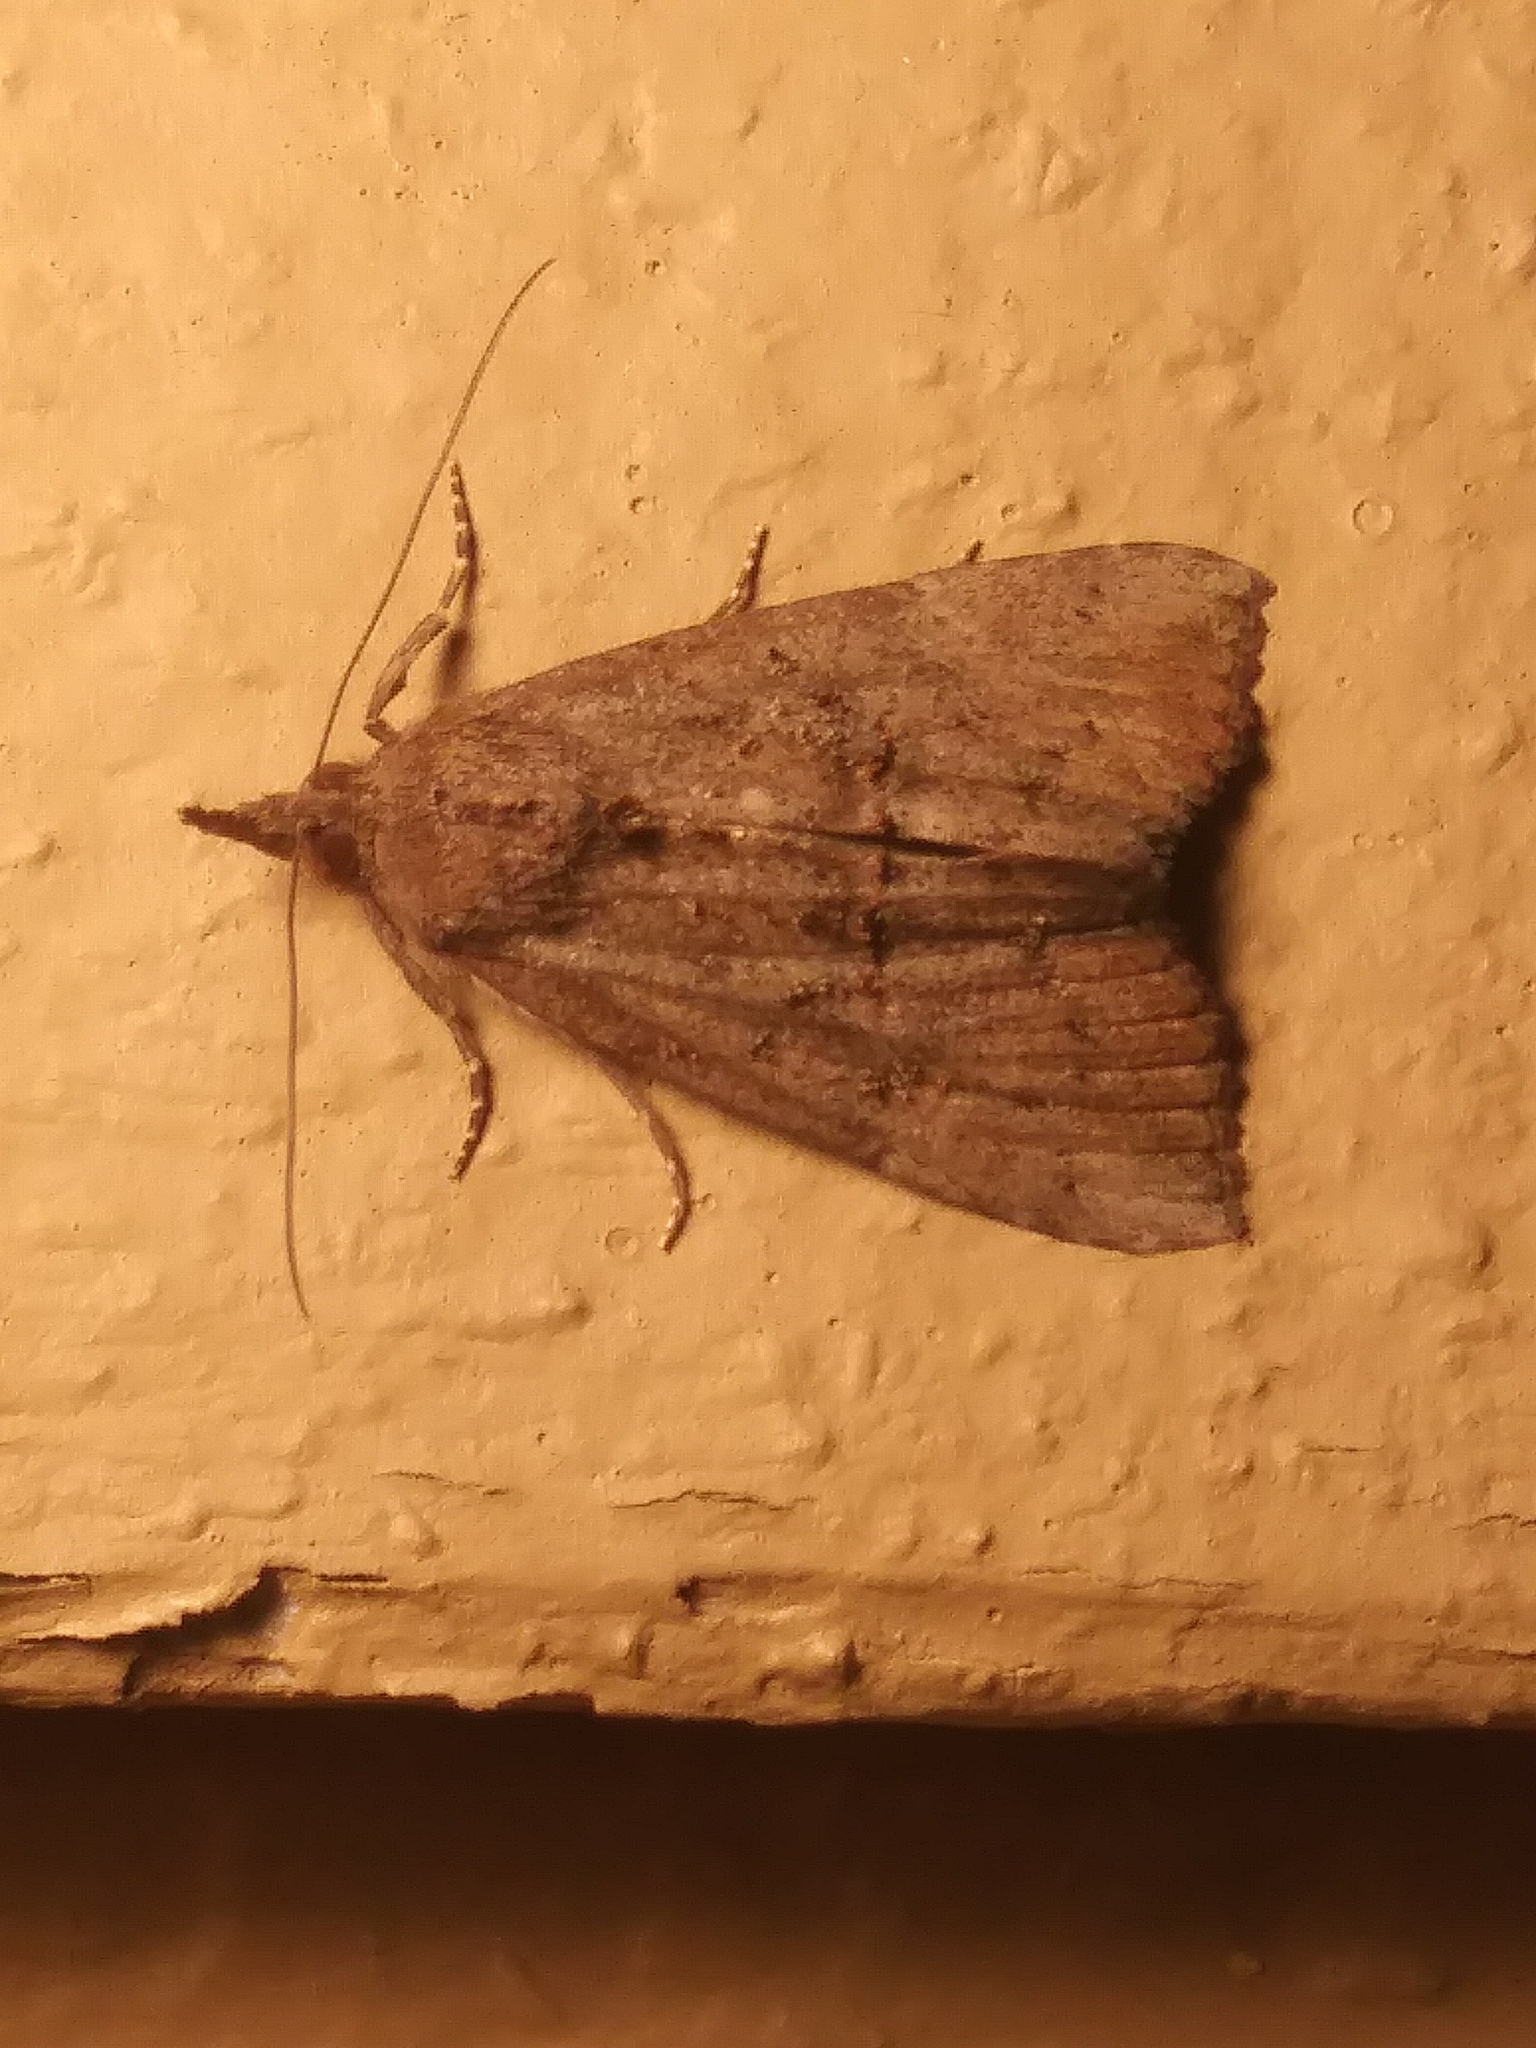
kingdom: Animalia
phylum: Arthropoda
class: Insecta
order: Lepidoptera
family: Erebidae
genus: Hypena
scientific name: Hypena scabra
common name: Green cloverworm
